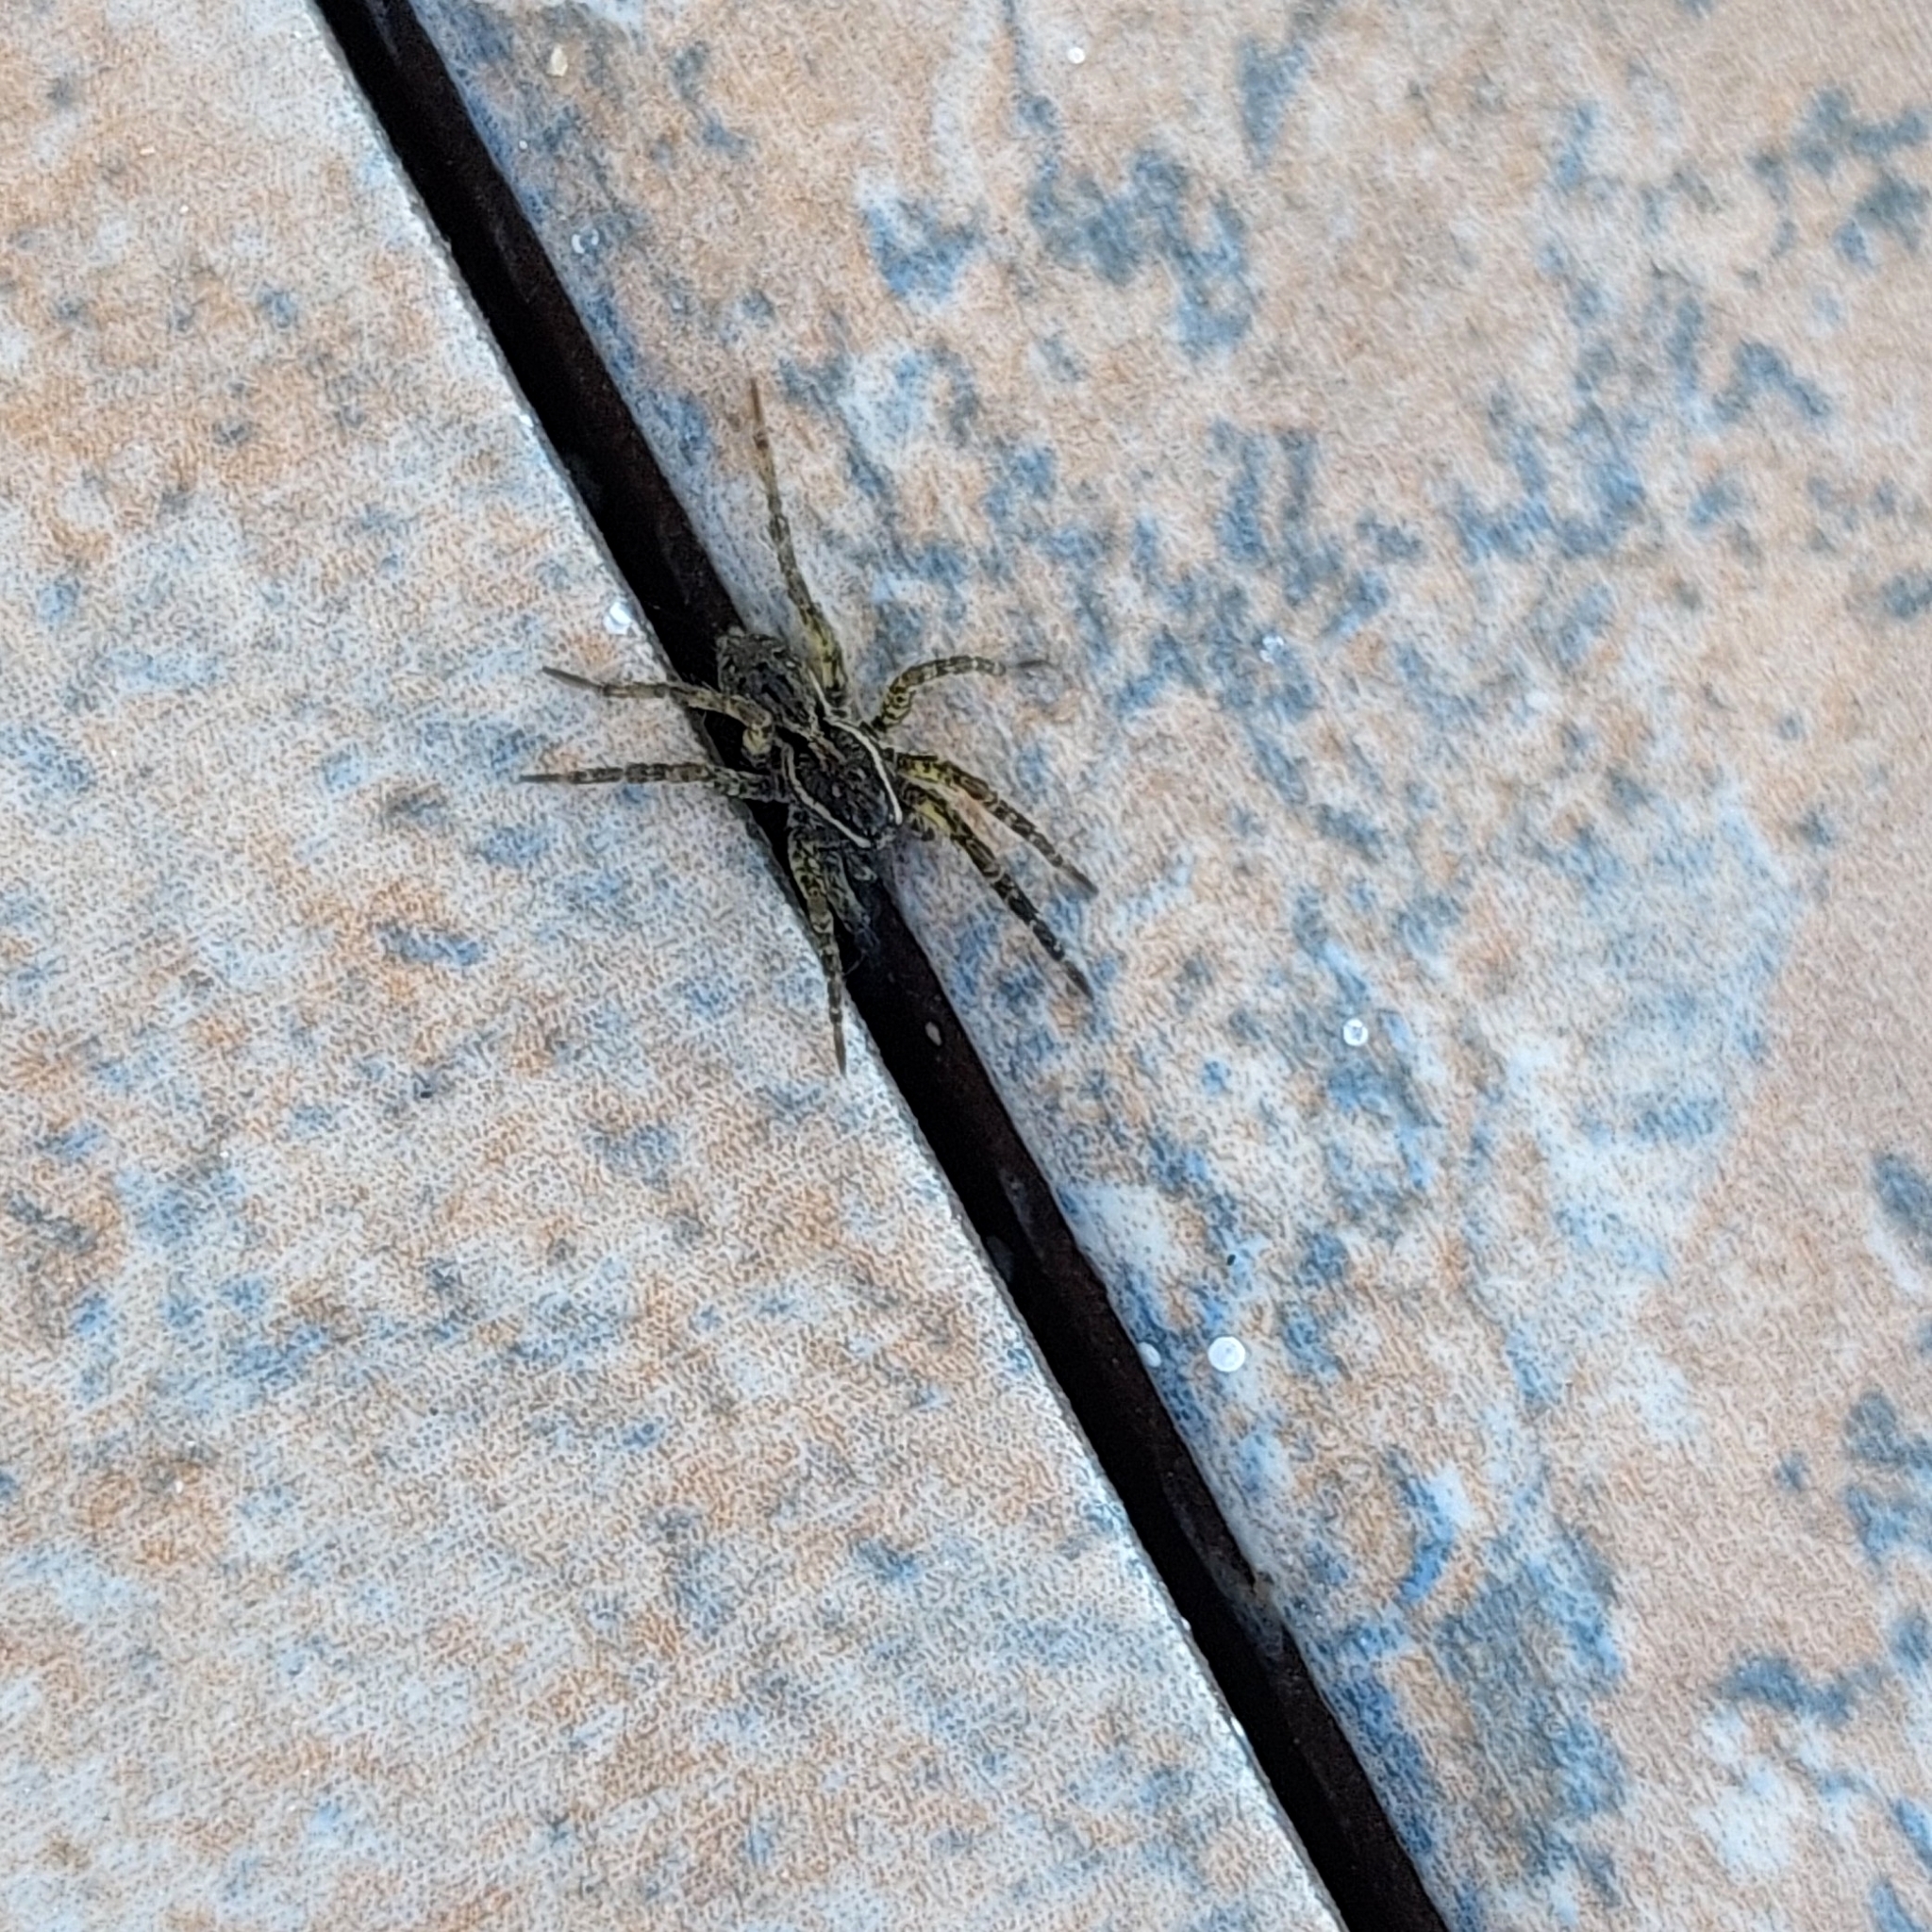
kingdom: Animalia
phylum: Arthropoda
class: Arachnida
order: Araneae
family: Lycosidae
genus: Trochosa
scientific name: Trochosa niveopilosa
